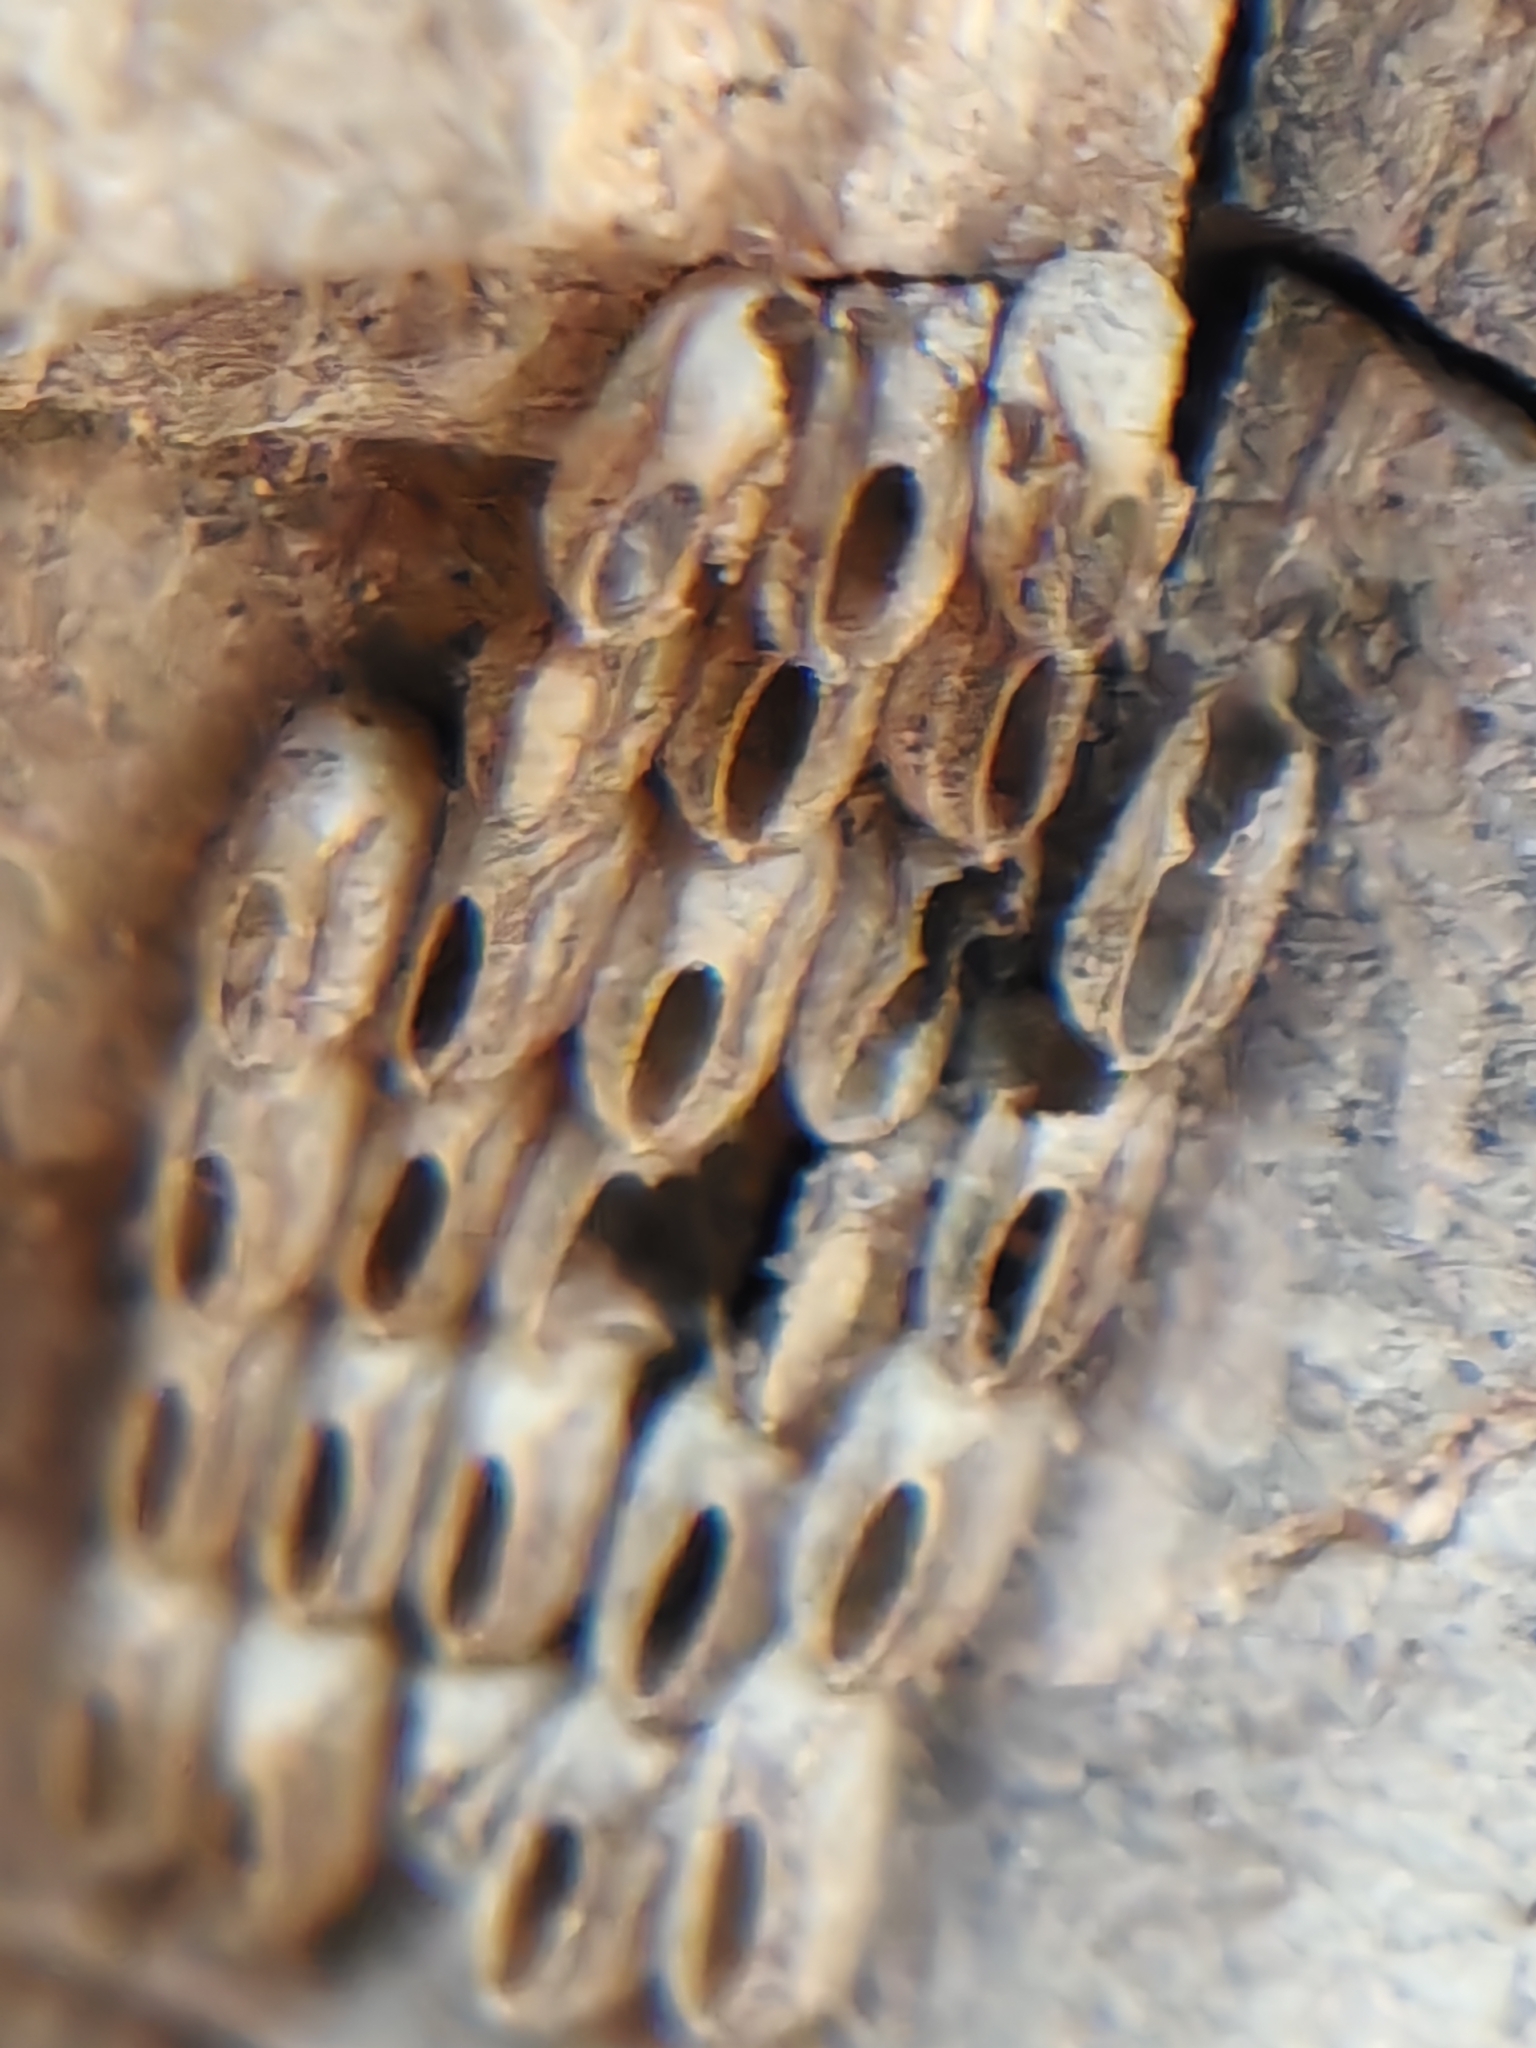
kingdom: Animalia
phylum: Arthropoda
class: Insecta
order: Hemiptera
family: Fulgoridae
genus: Lycorma
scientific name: Lycorma delicatula
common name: Spotted lanternfly
